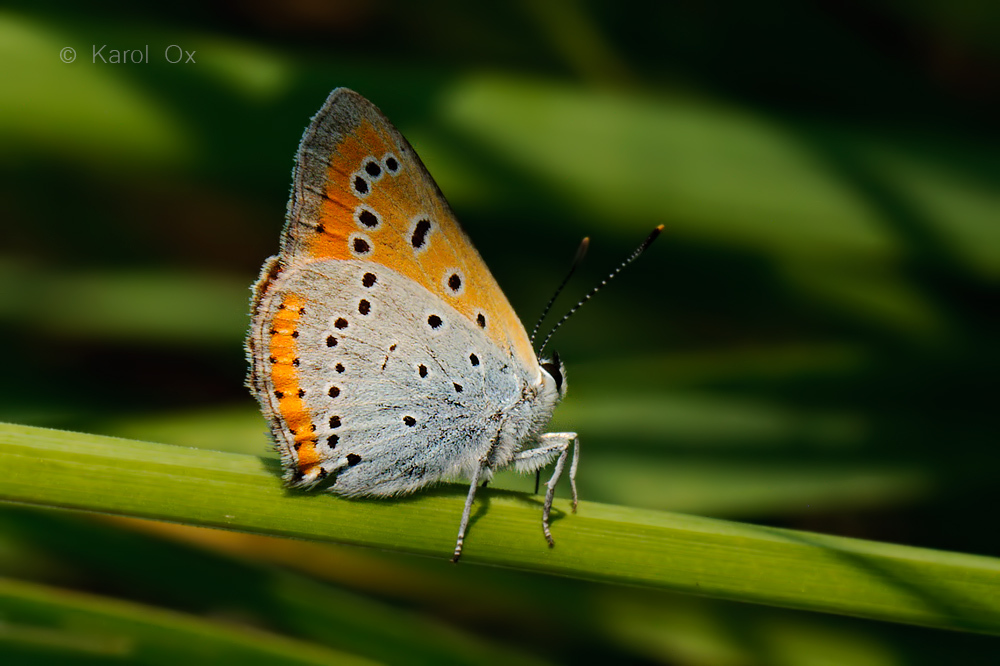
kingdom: Animalia
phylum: Arthropoda
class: Insecta
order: Lepidoptera
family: Lycaenidae
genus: Lycaena
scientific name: Lycaena dispar
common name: Large copper
